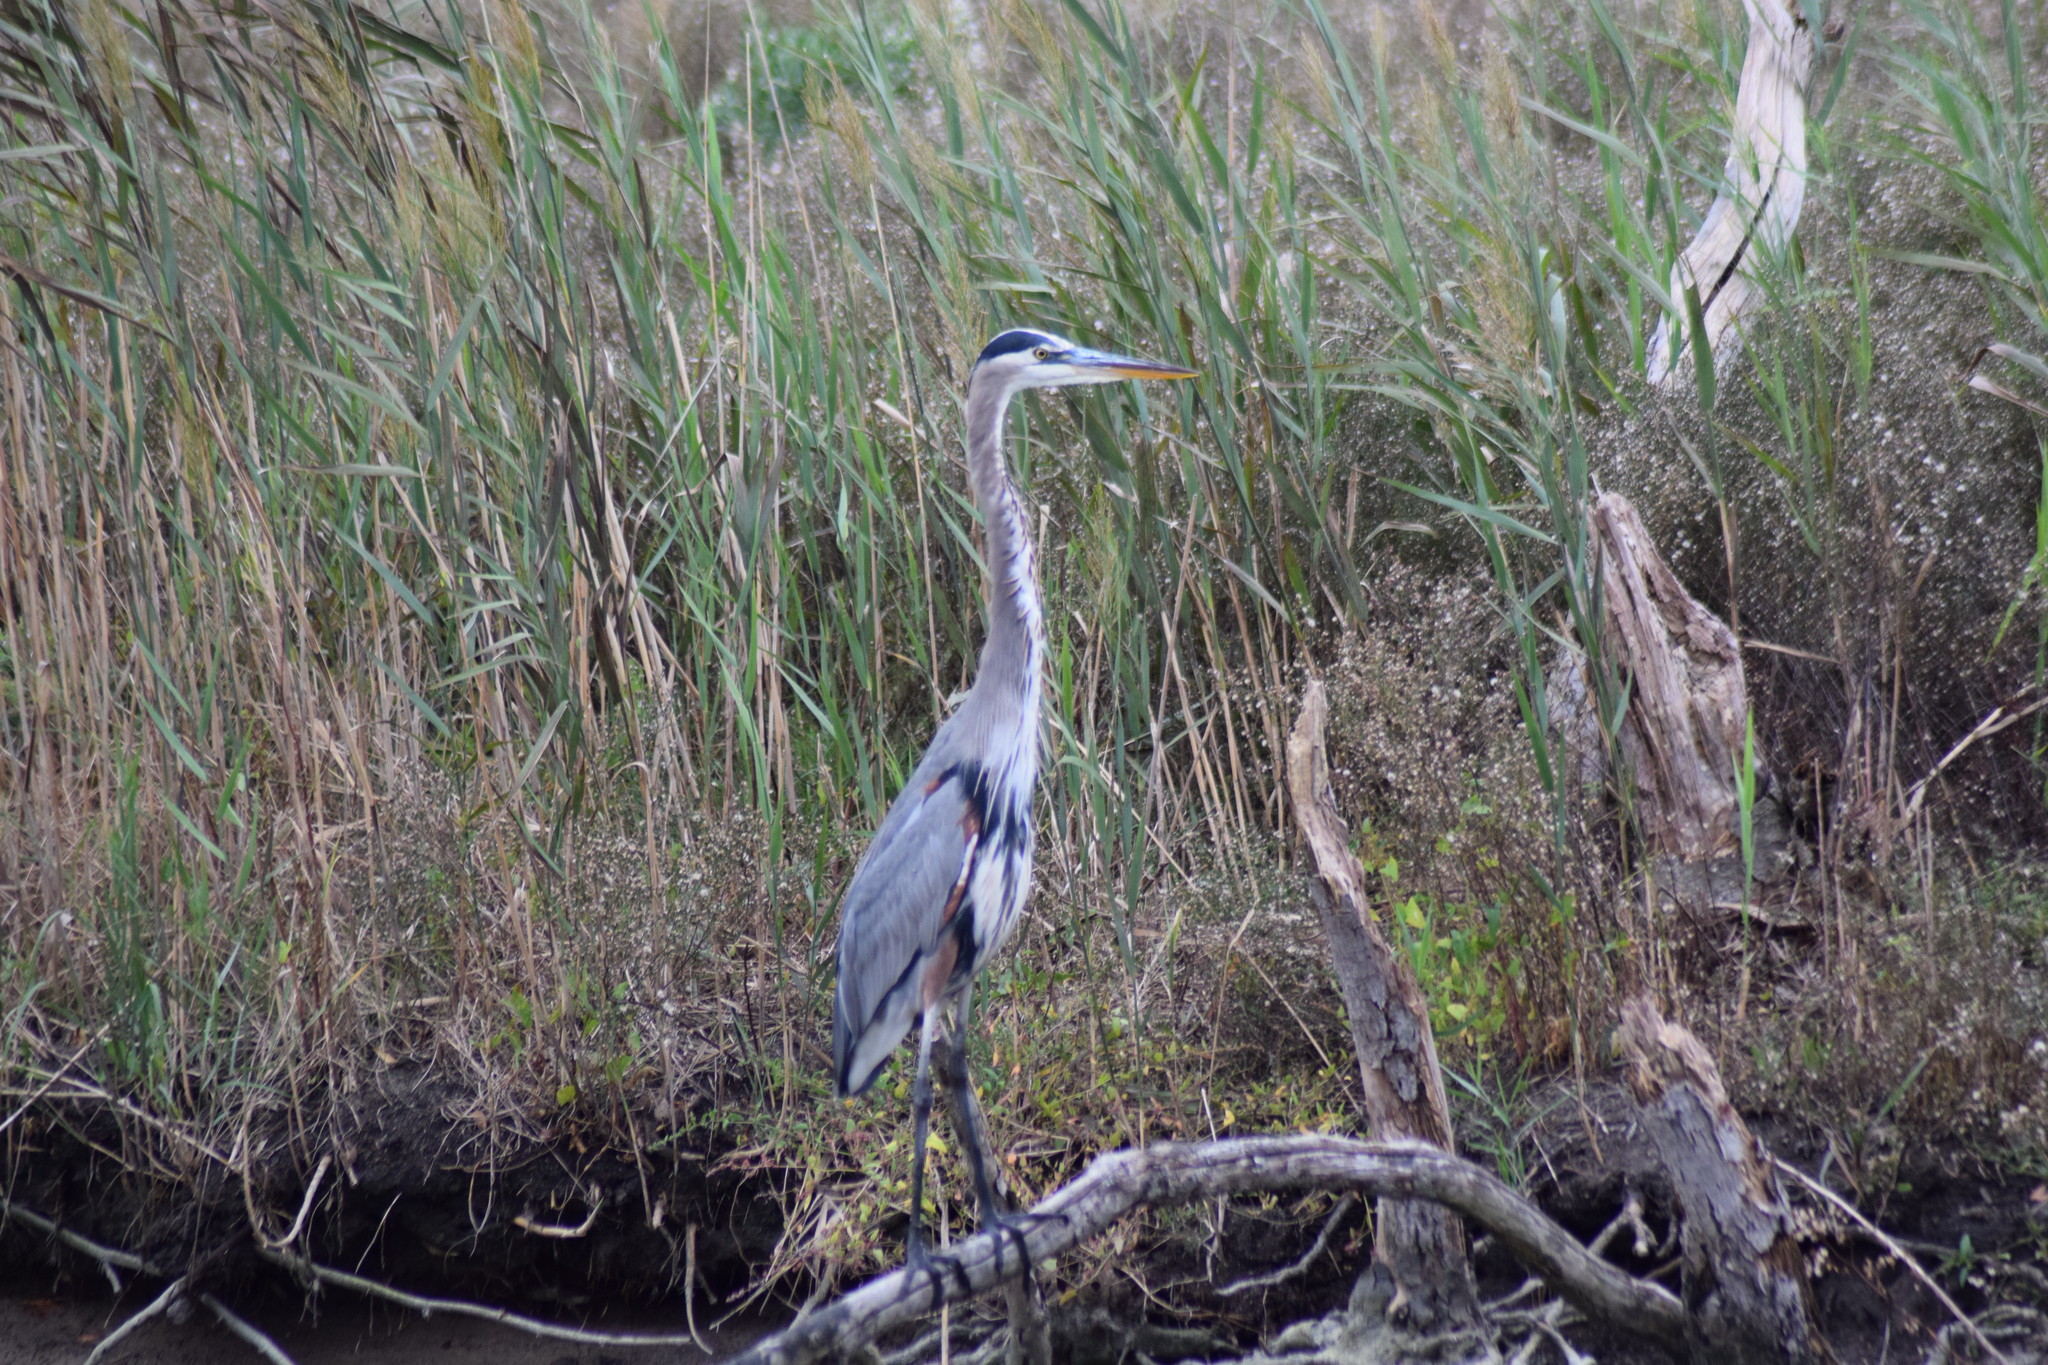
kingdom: Animalia
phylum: Chordata
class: Aves
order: Pelecaniformes
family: Ardeidae
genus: Ardea
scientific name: Ardea herodias
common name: Great blue heron
